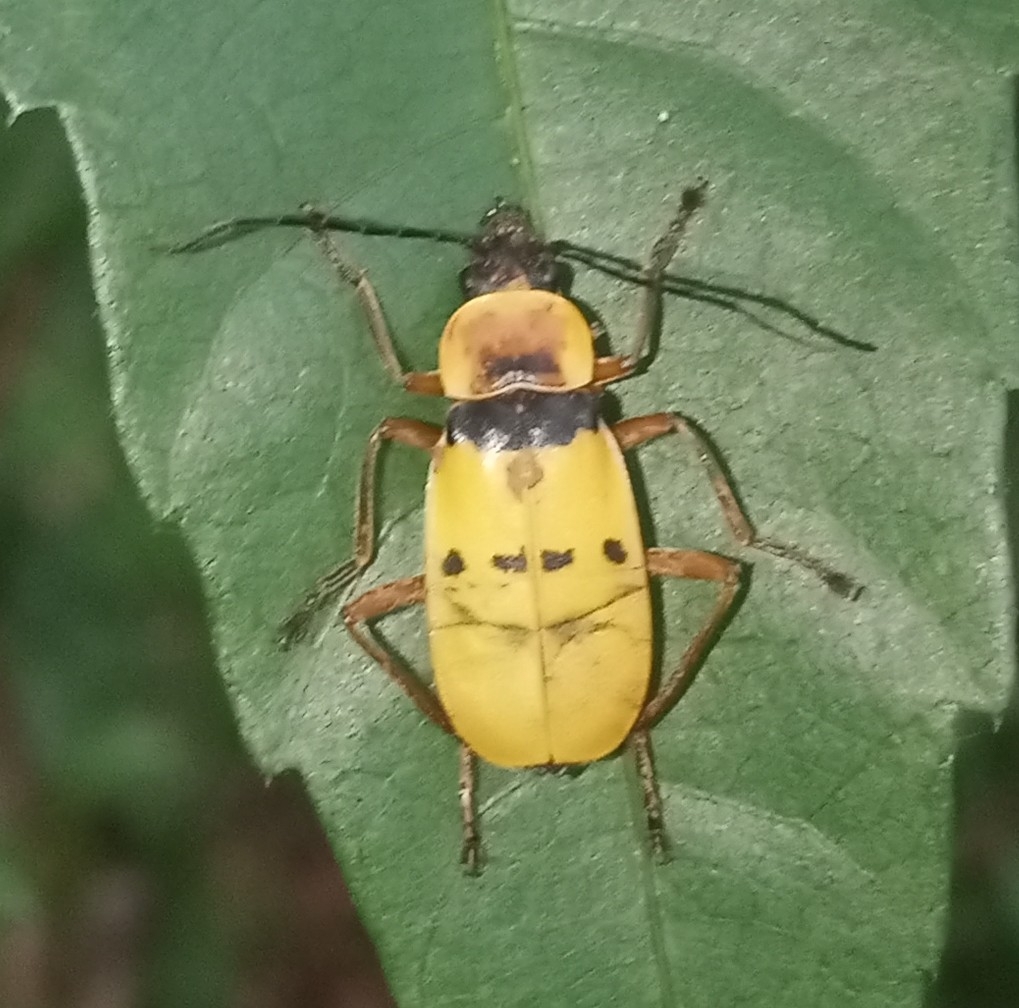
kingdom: Animalia
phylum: Arthropoda
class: Insecta
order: Coleoptera
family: Cantharidae
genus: Chauliognathus
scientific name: Chauliognathus
